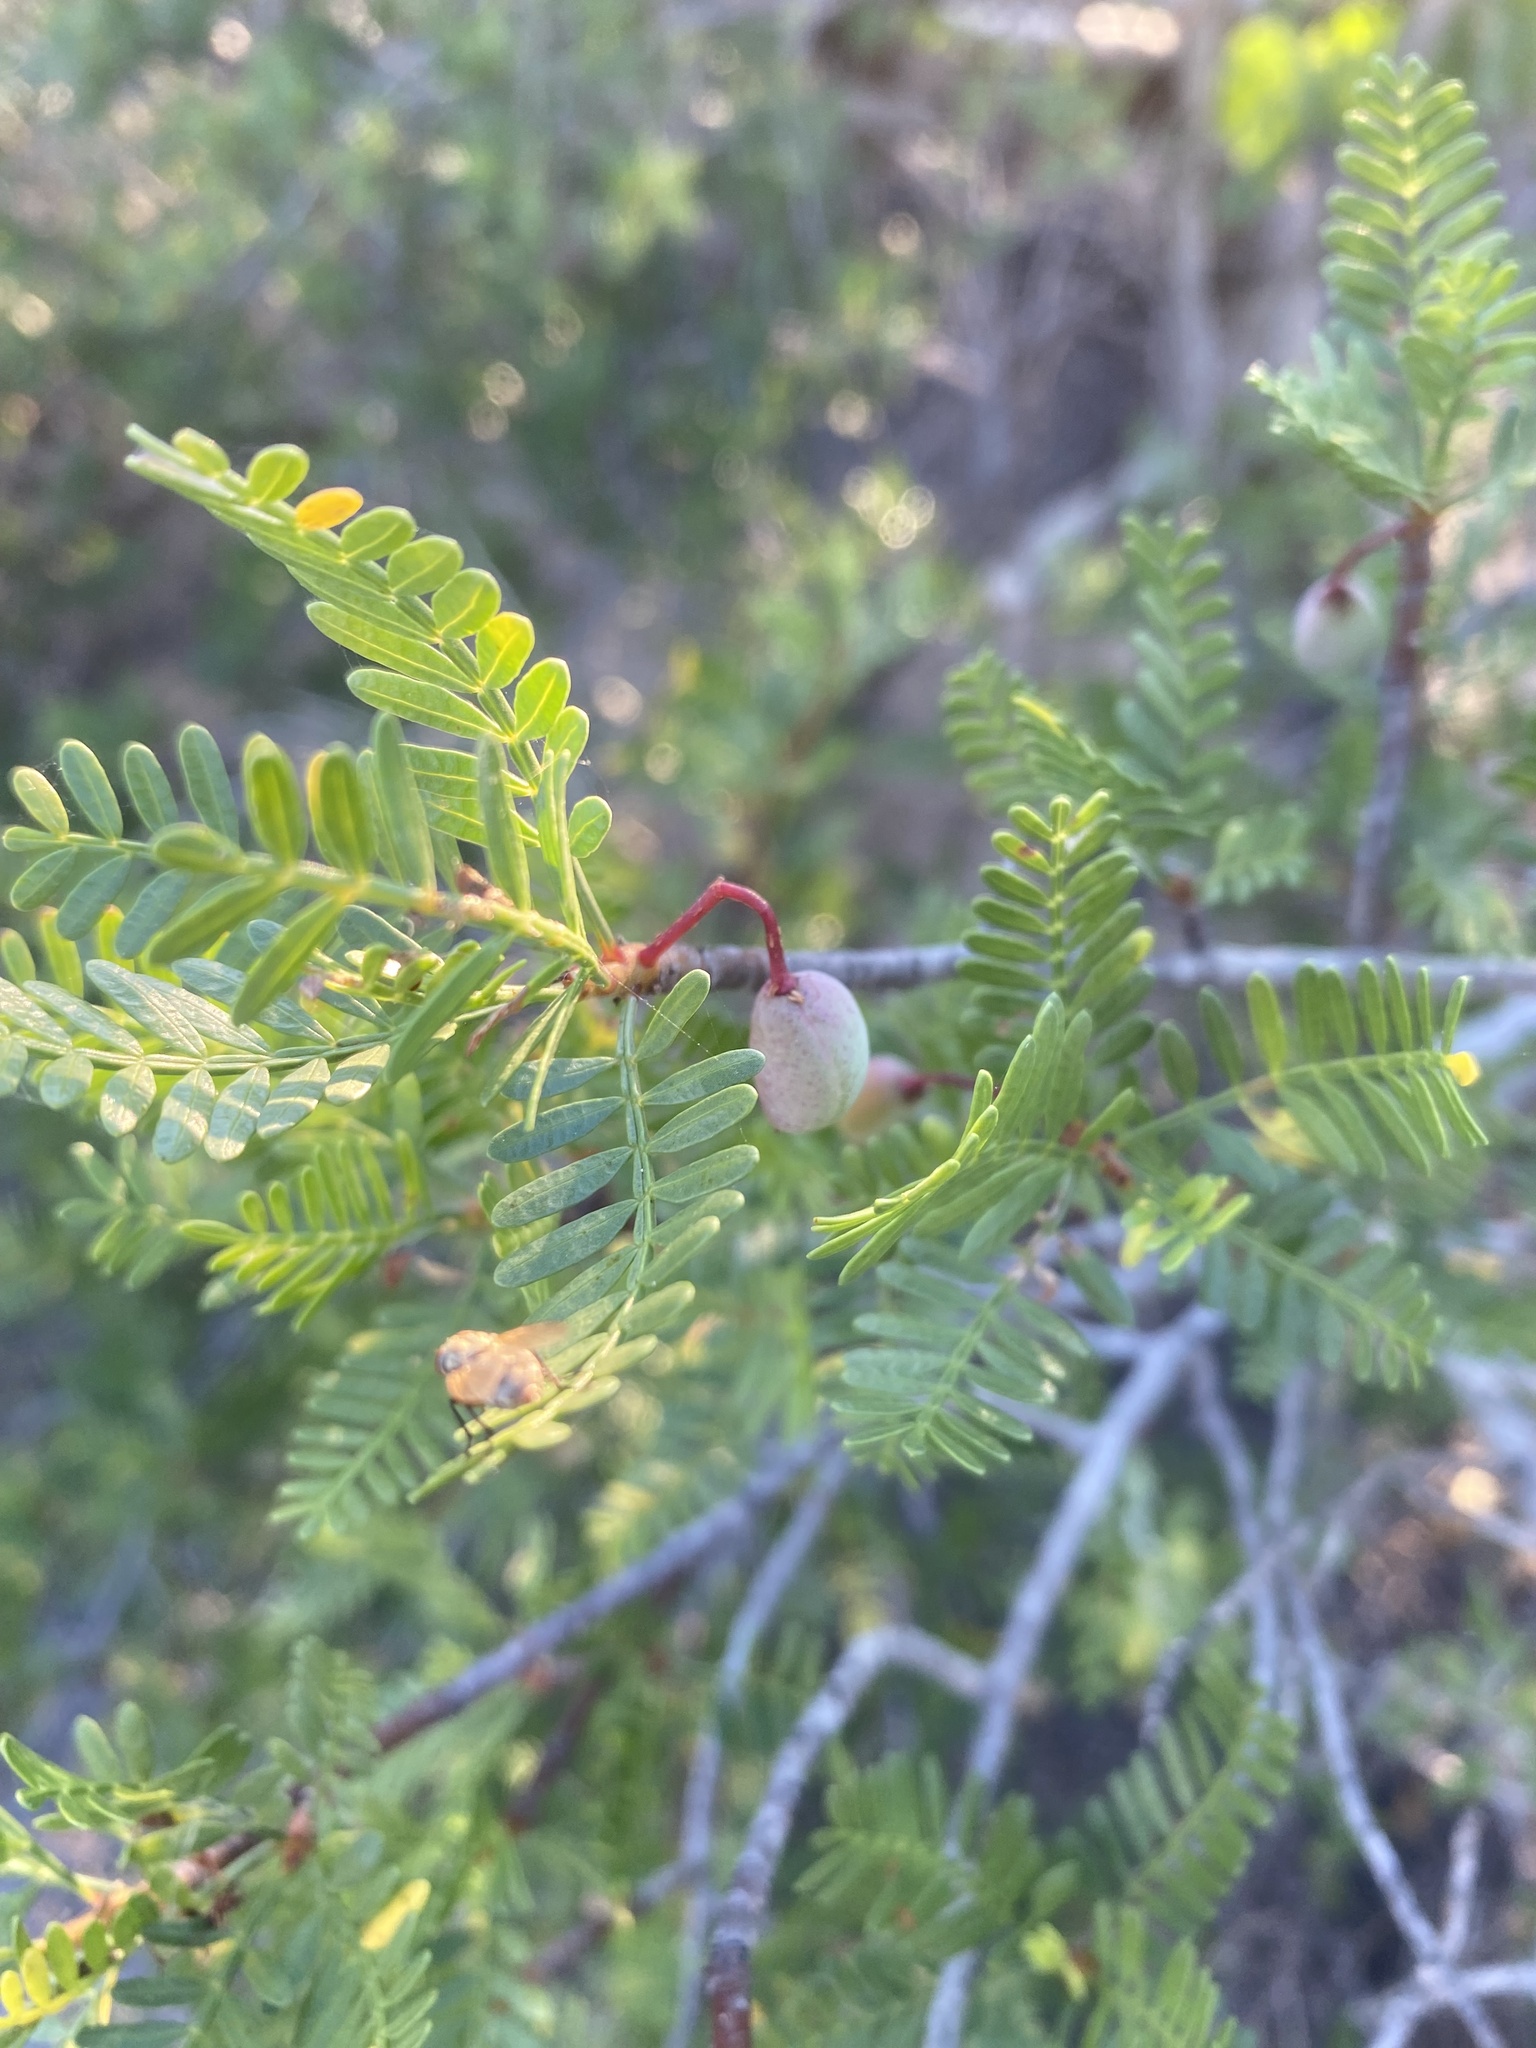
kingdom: Plantae
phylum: Tracheophyta
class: Magnoliopsida
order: Sapindales
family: Burseraceae
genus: Bursera
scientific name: Bursera microphylla
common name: Elephant tree
